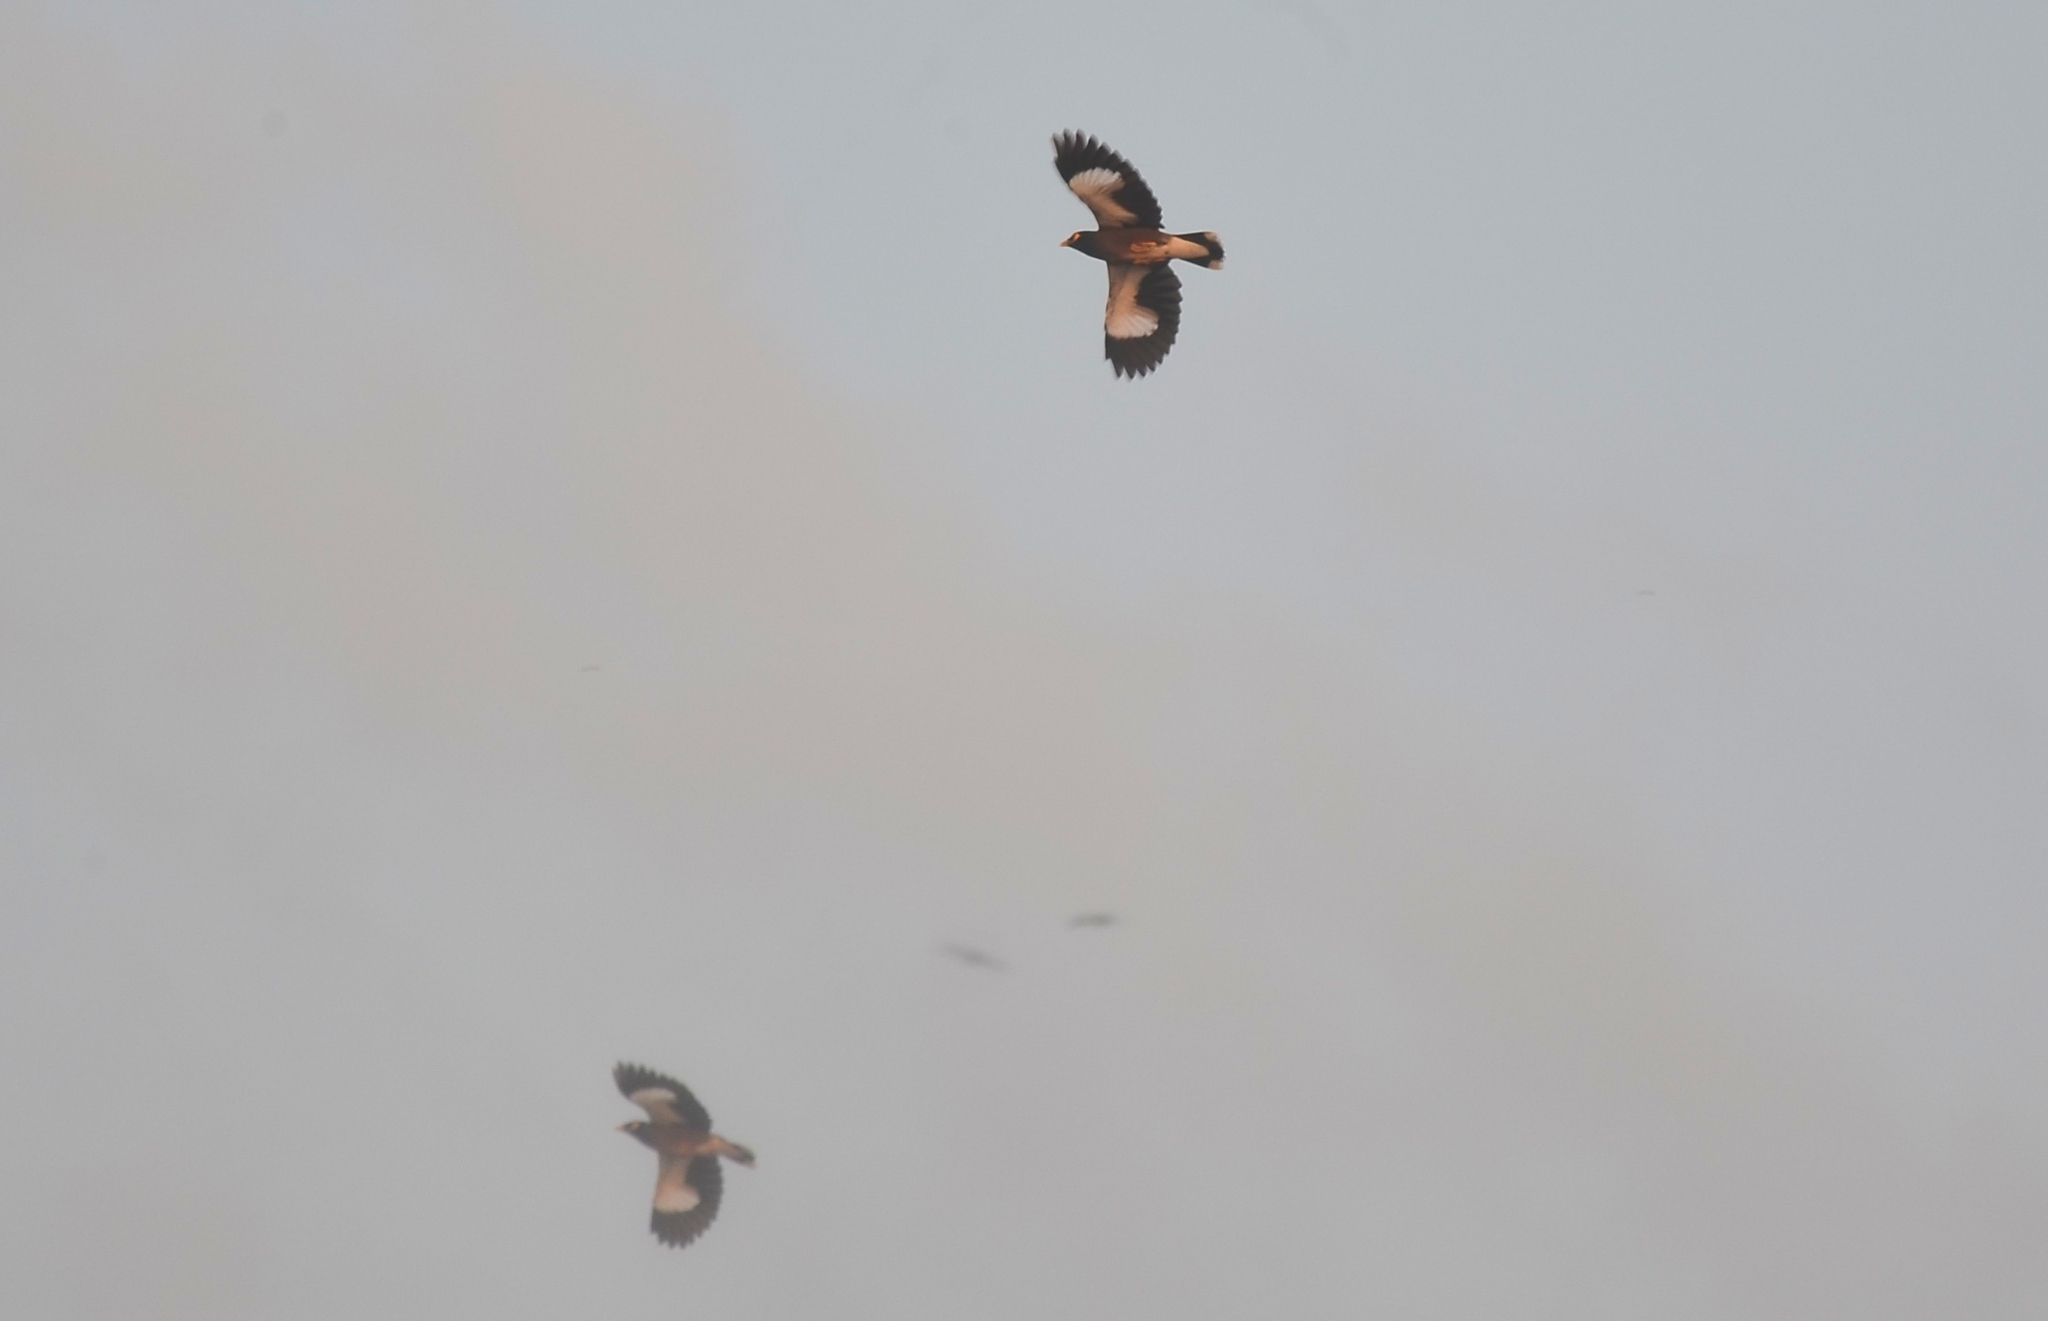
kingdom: Animalia
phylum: Chordata
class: Aves
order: Passeriformes
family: Sturnidae
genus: Acridotheres
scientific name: Acridotheres tristis
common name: Common myna
